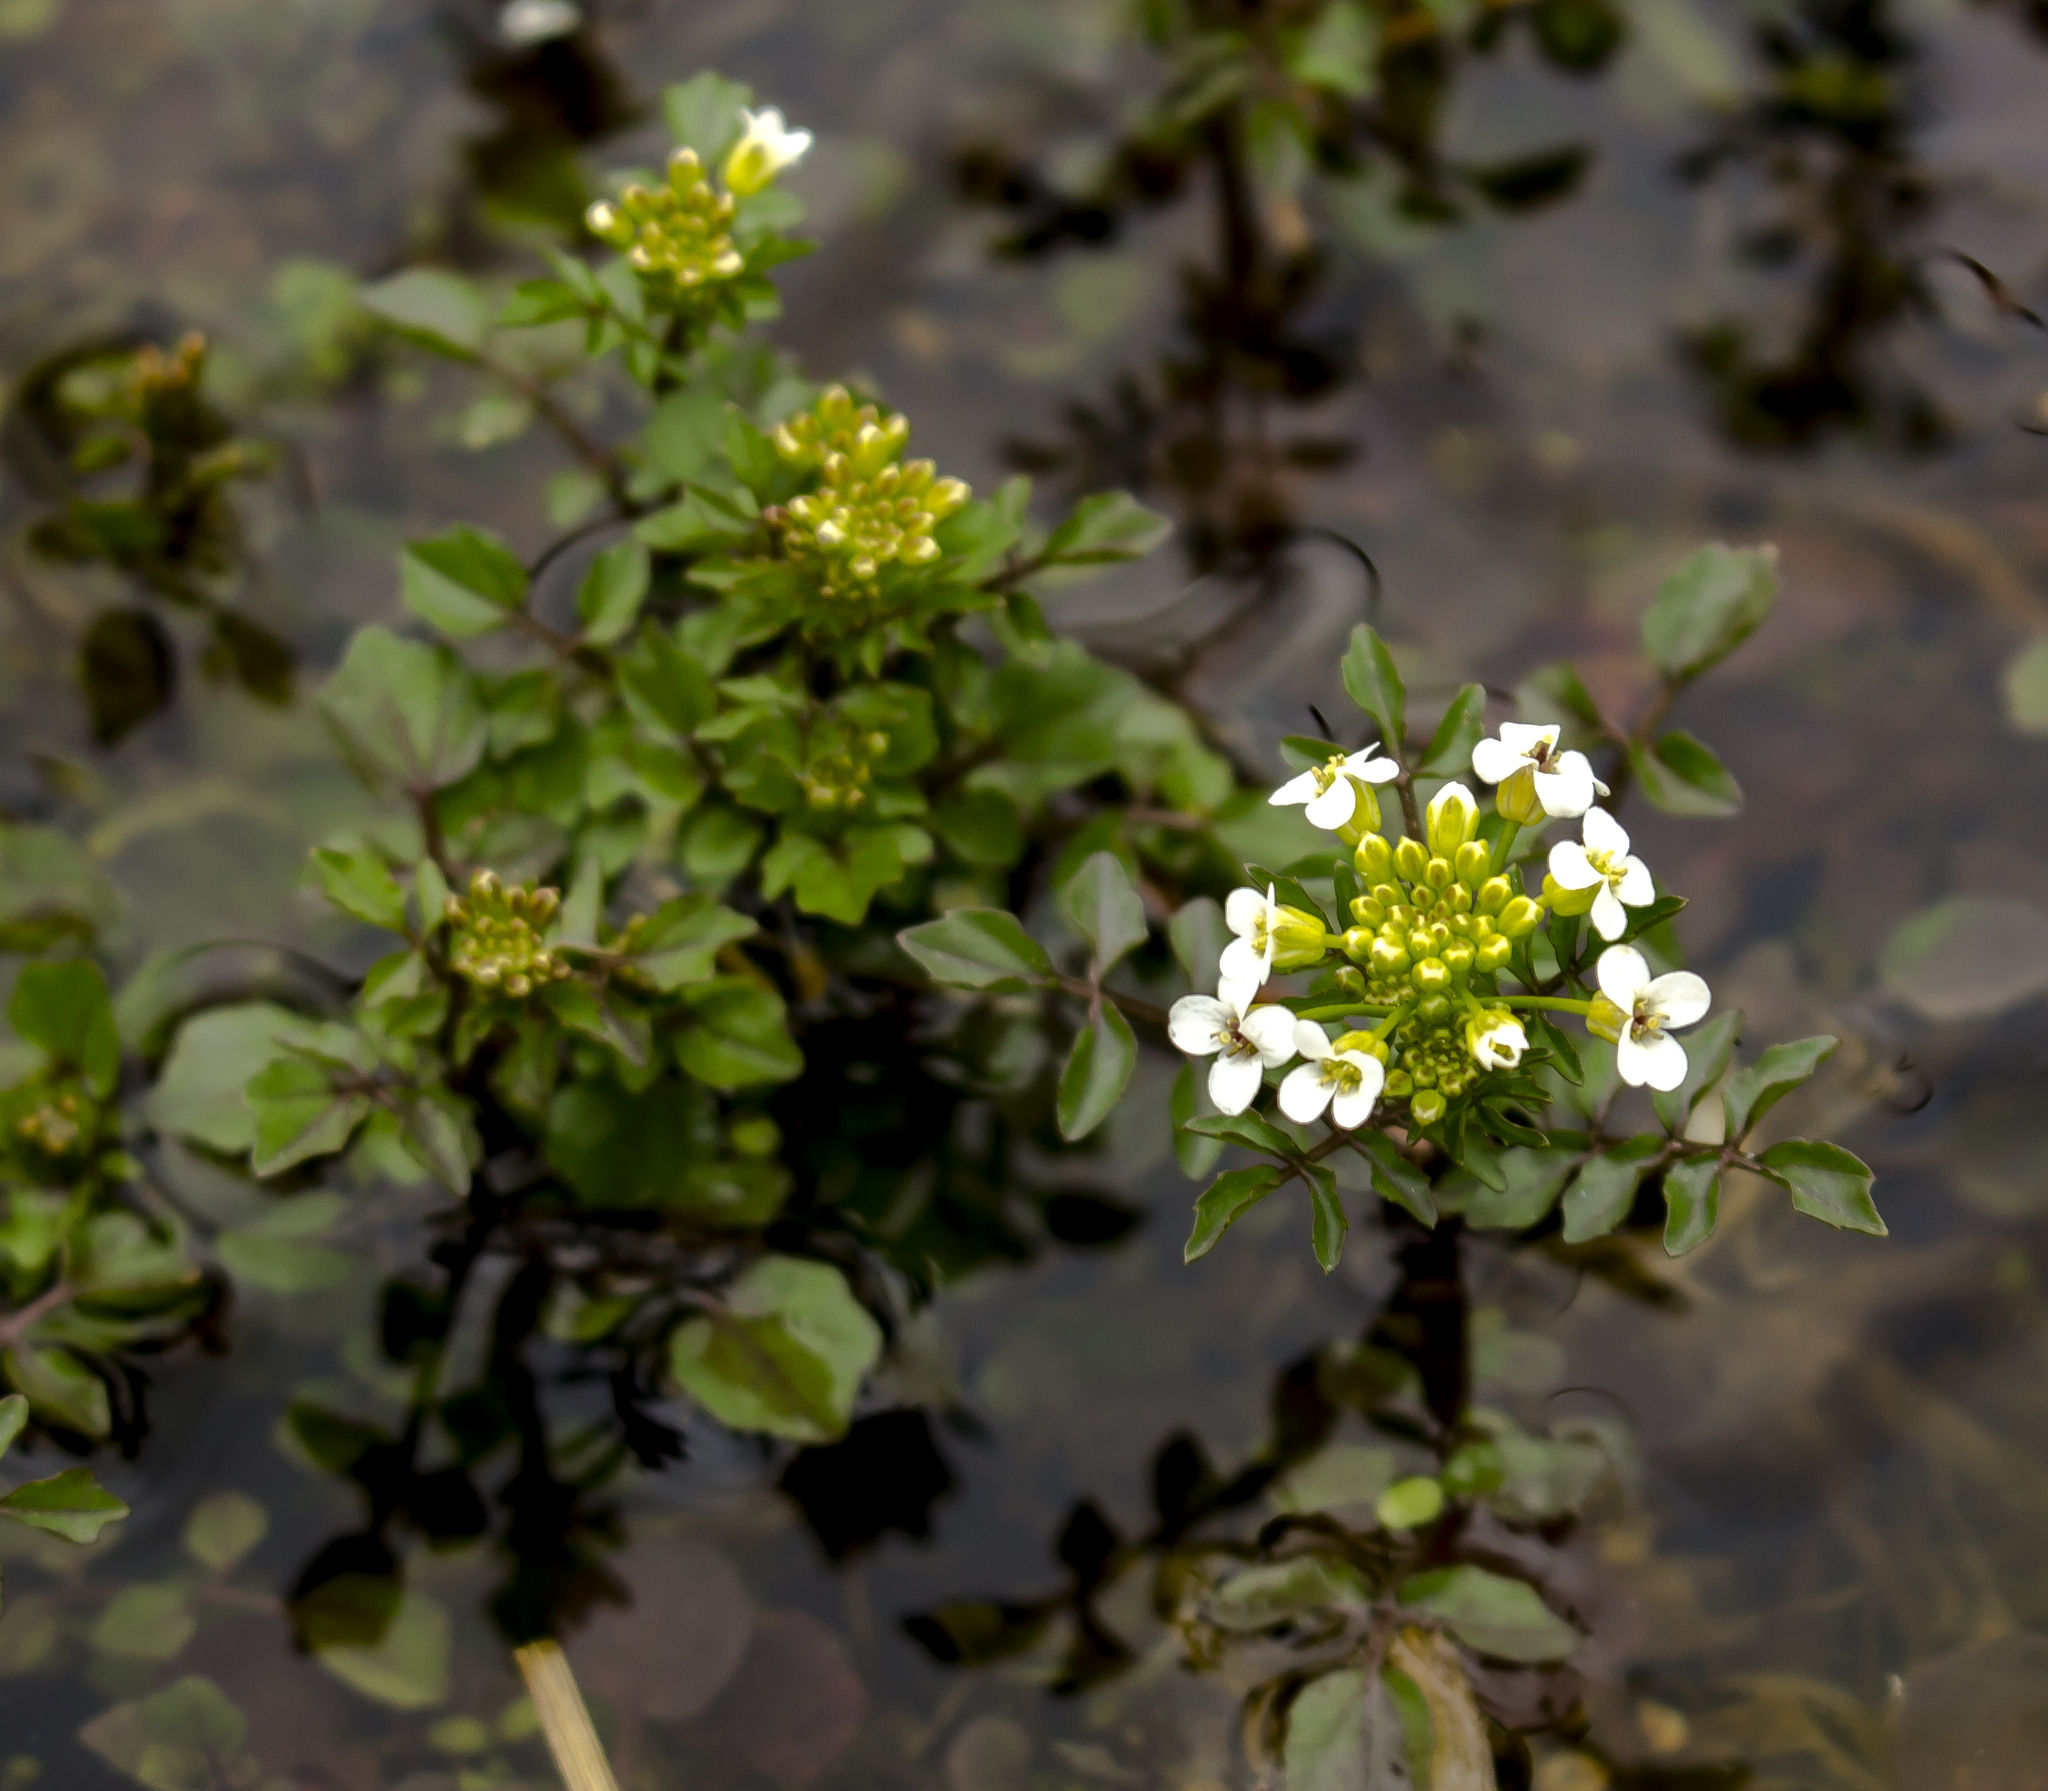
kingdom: Plantae
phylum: Tracheophyta
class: Magnoliopsida
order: Brassicales
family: Brassicaceae
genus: Nasturtium
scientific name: Nasturtium officinale
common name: Watercress
